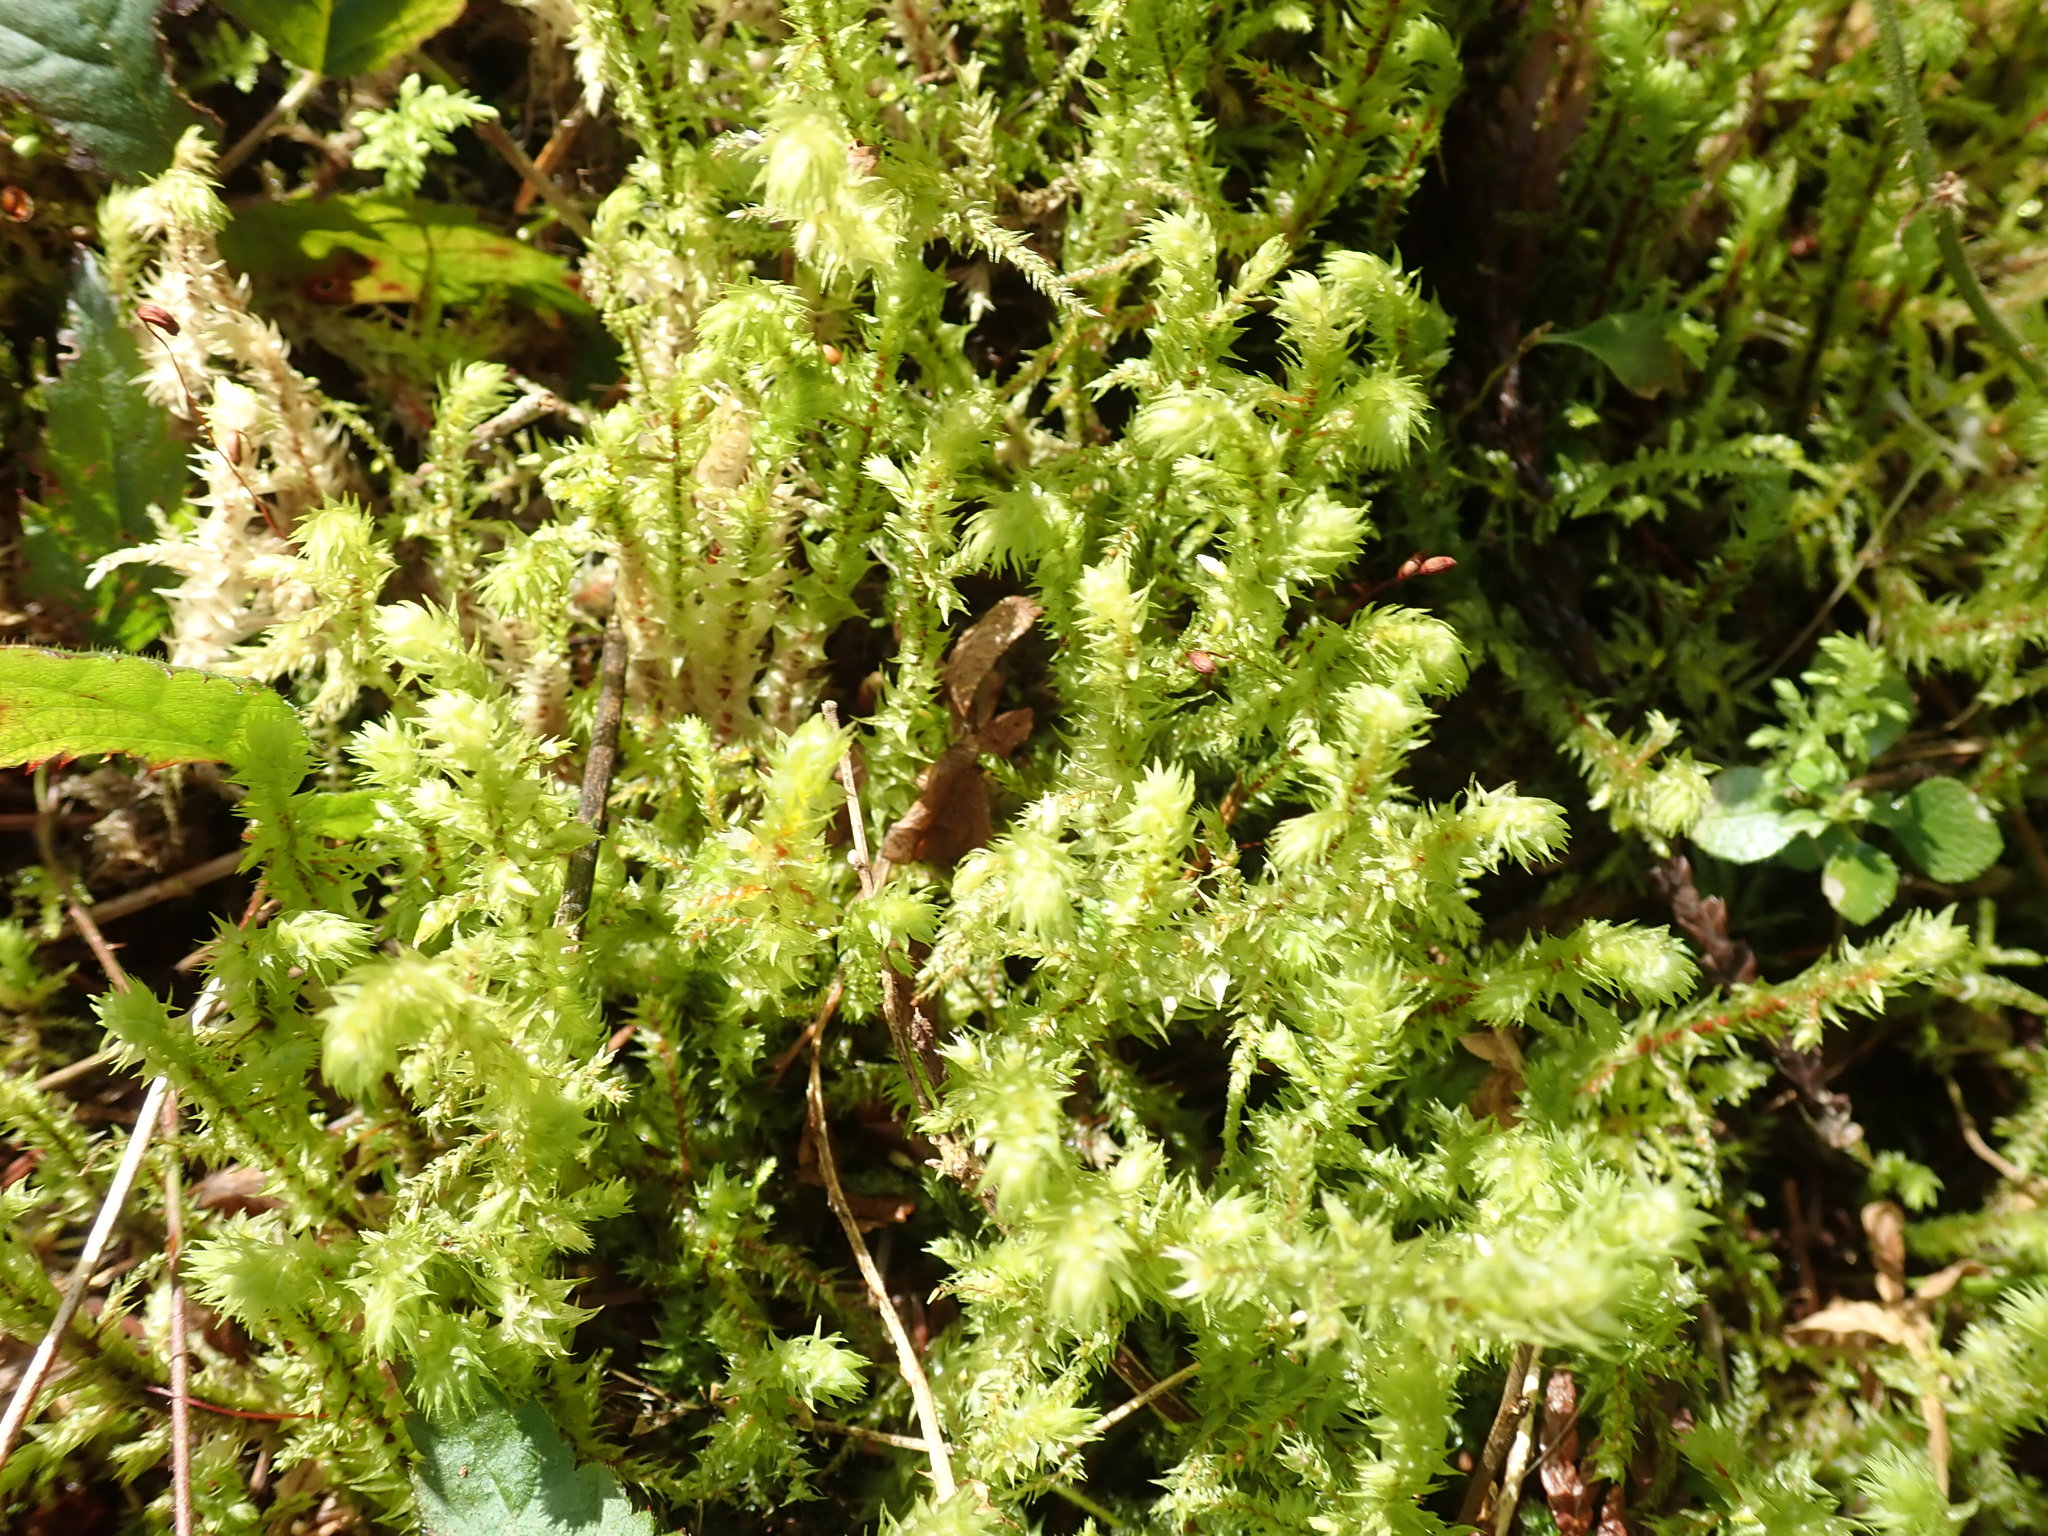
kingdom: Plantae
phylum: Bryophyta
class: Bryopsida
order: Hypnales
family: Hylocomiaceae
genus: Hylocomiadelphus
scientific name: Hylocomiadelphus triquetrus
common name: Rough goose neck moss
